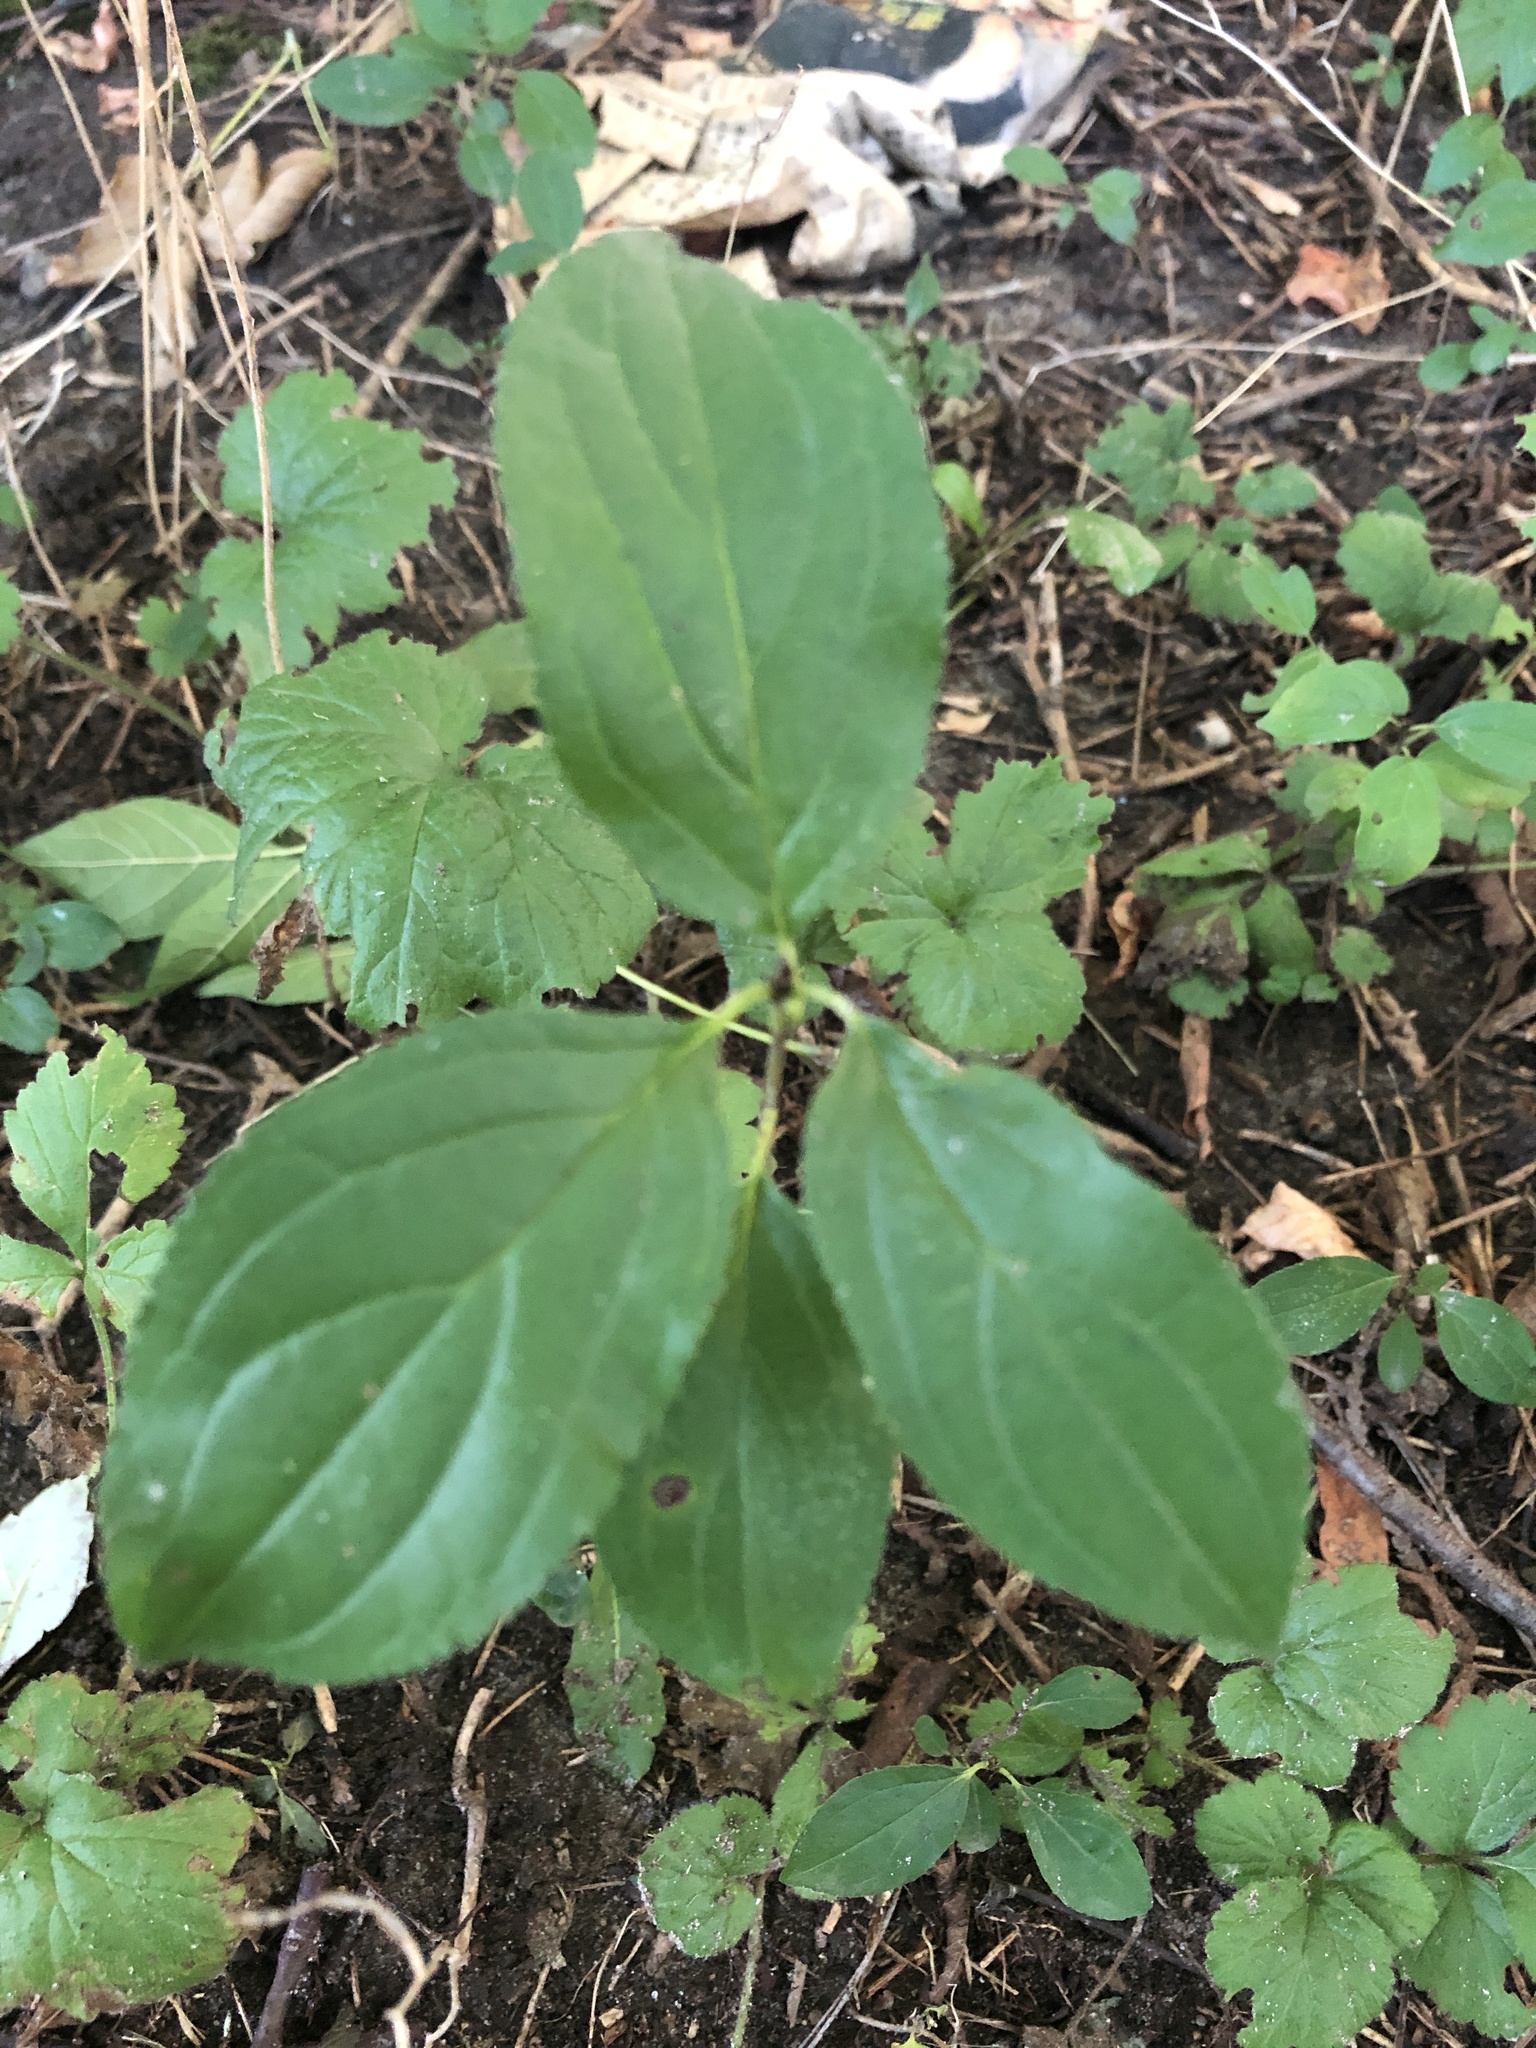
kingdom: Plantae
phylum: Tracheophyta
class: Magnoliopsida
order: Rosales
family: Rhamnaceae
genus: Rhamnus
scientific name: Rhamnus cathartica
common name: Common buckthorn
